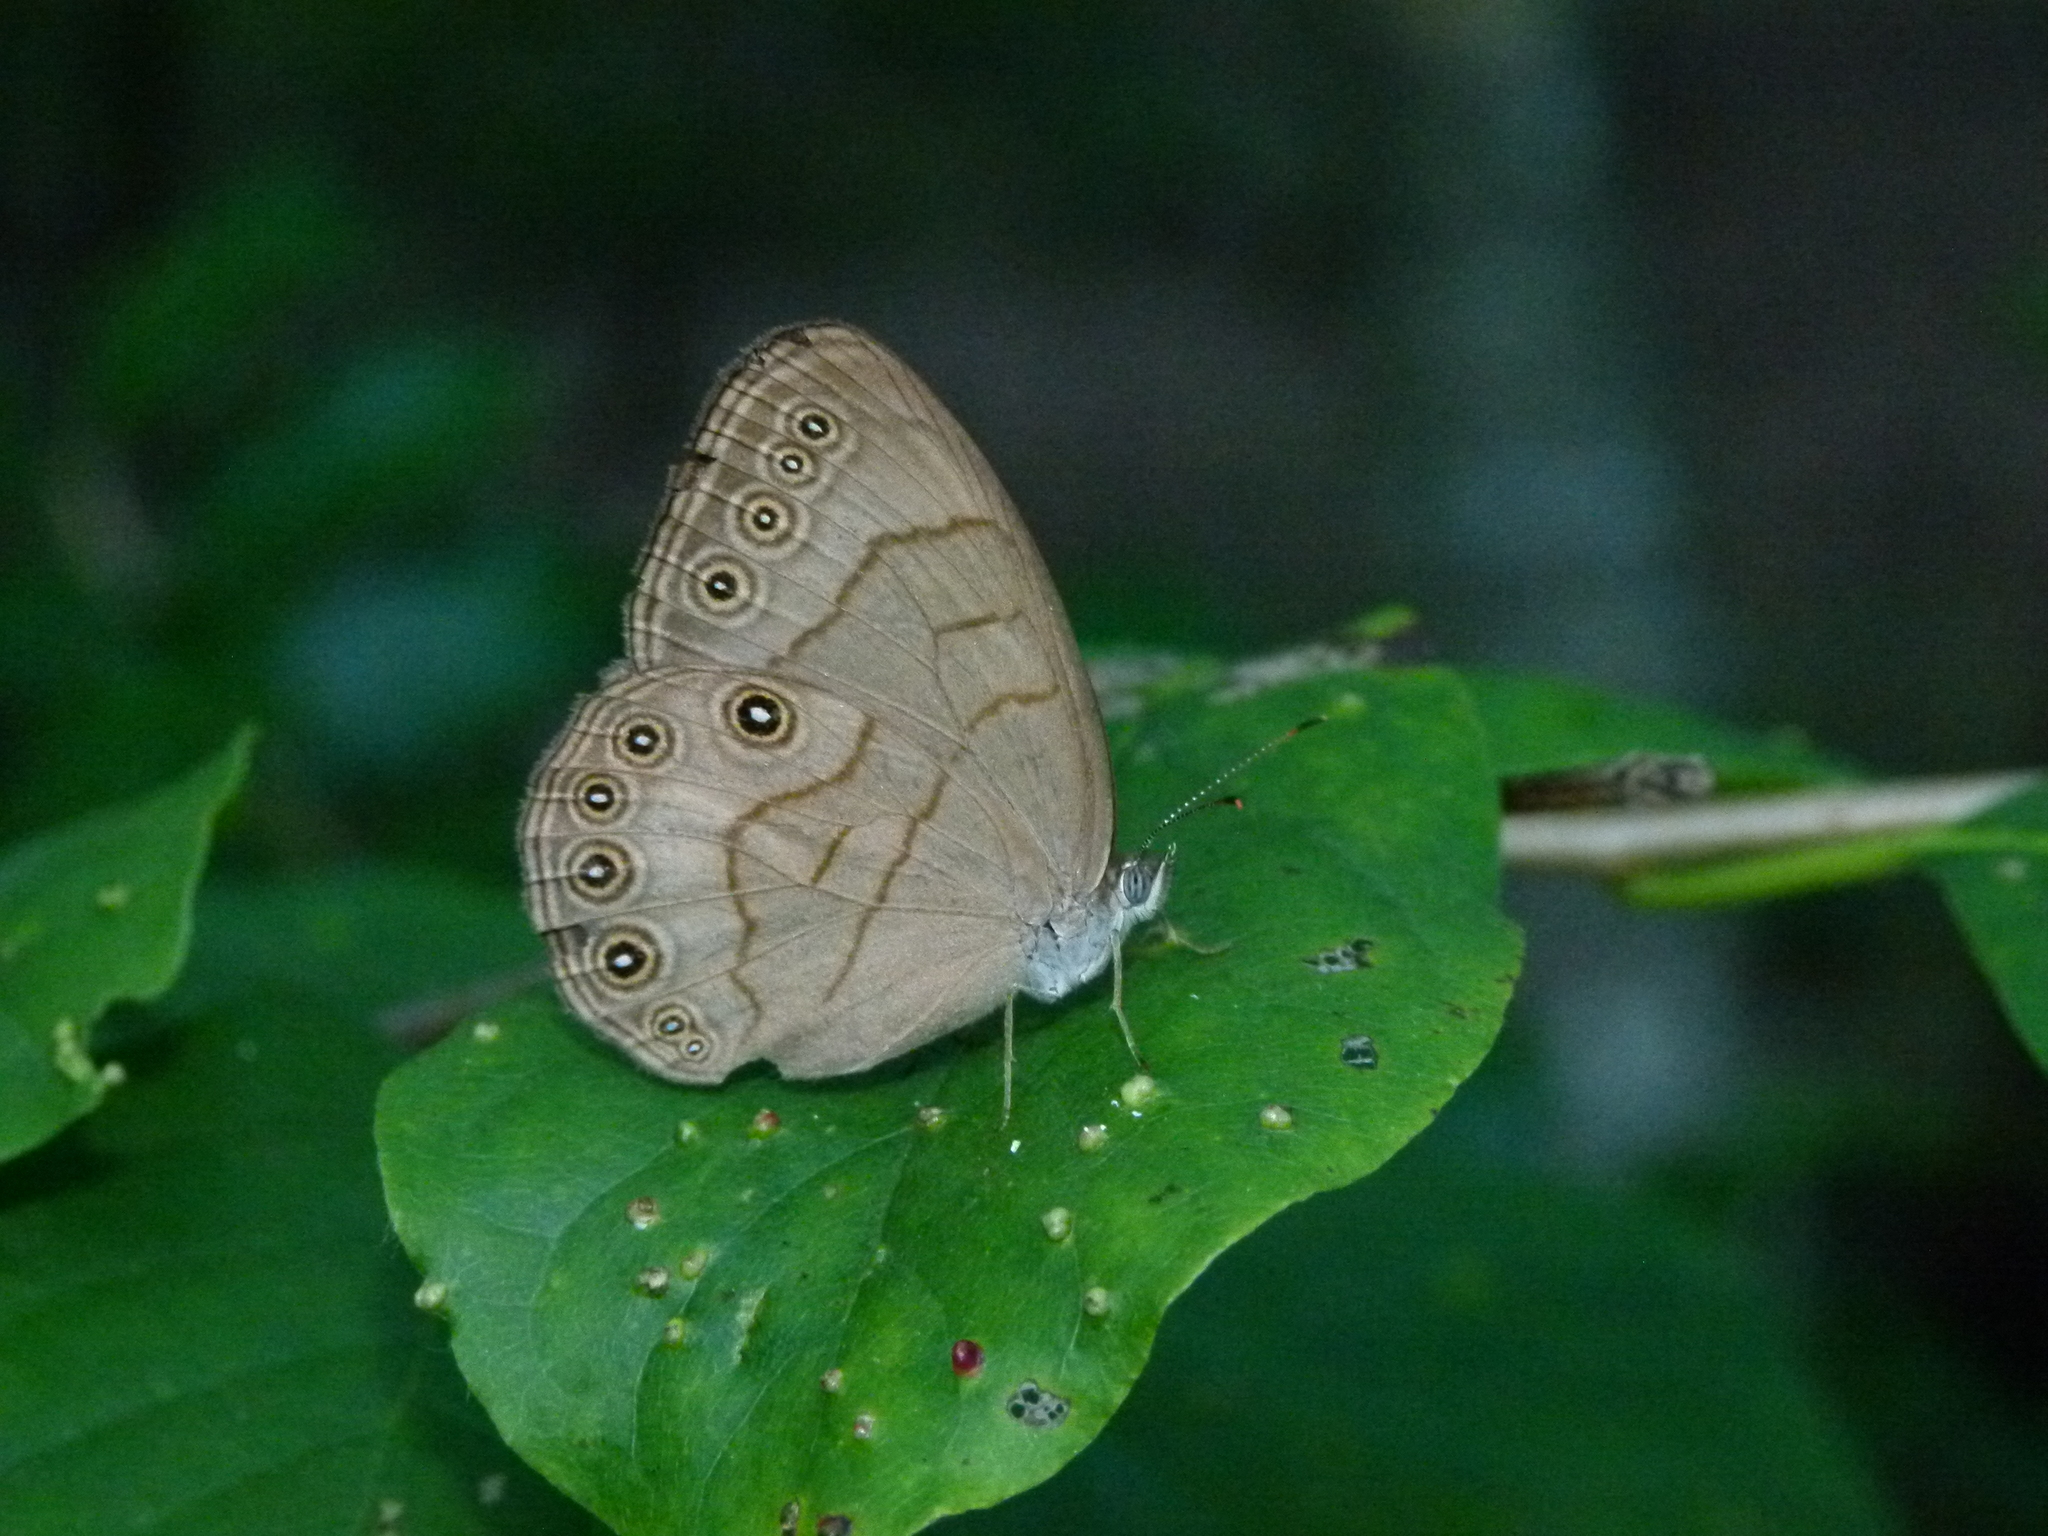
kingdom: Animalia
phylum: Arthropoda
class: Insecta
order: Lepidoptera
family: Nymphalidae
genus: Lethe
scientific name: Lethe eurydice
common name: Eyed brown
